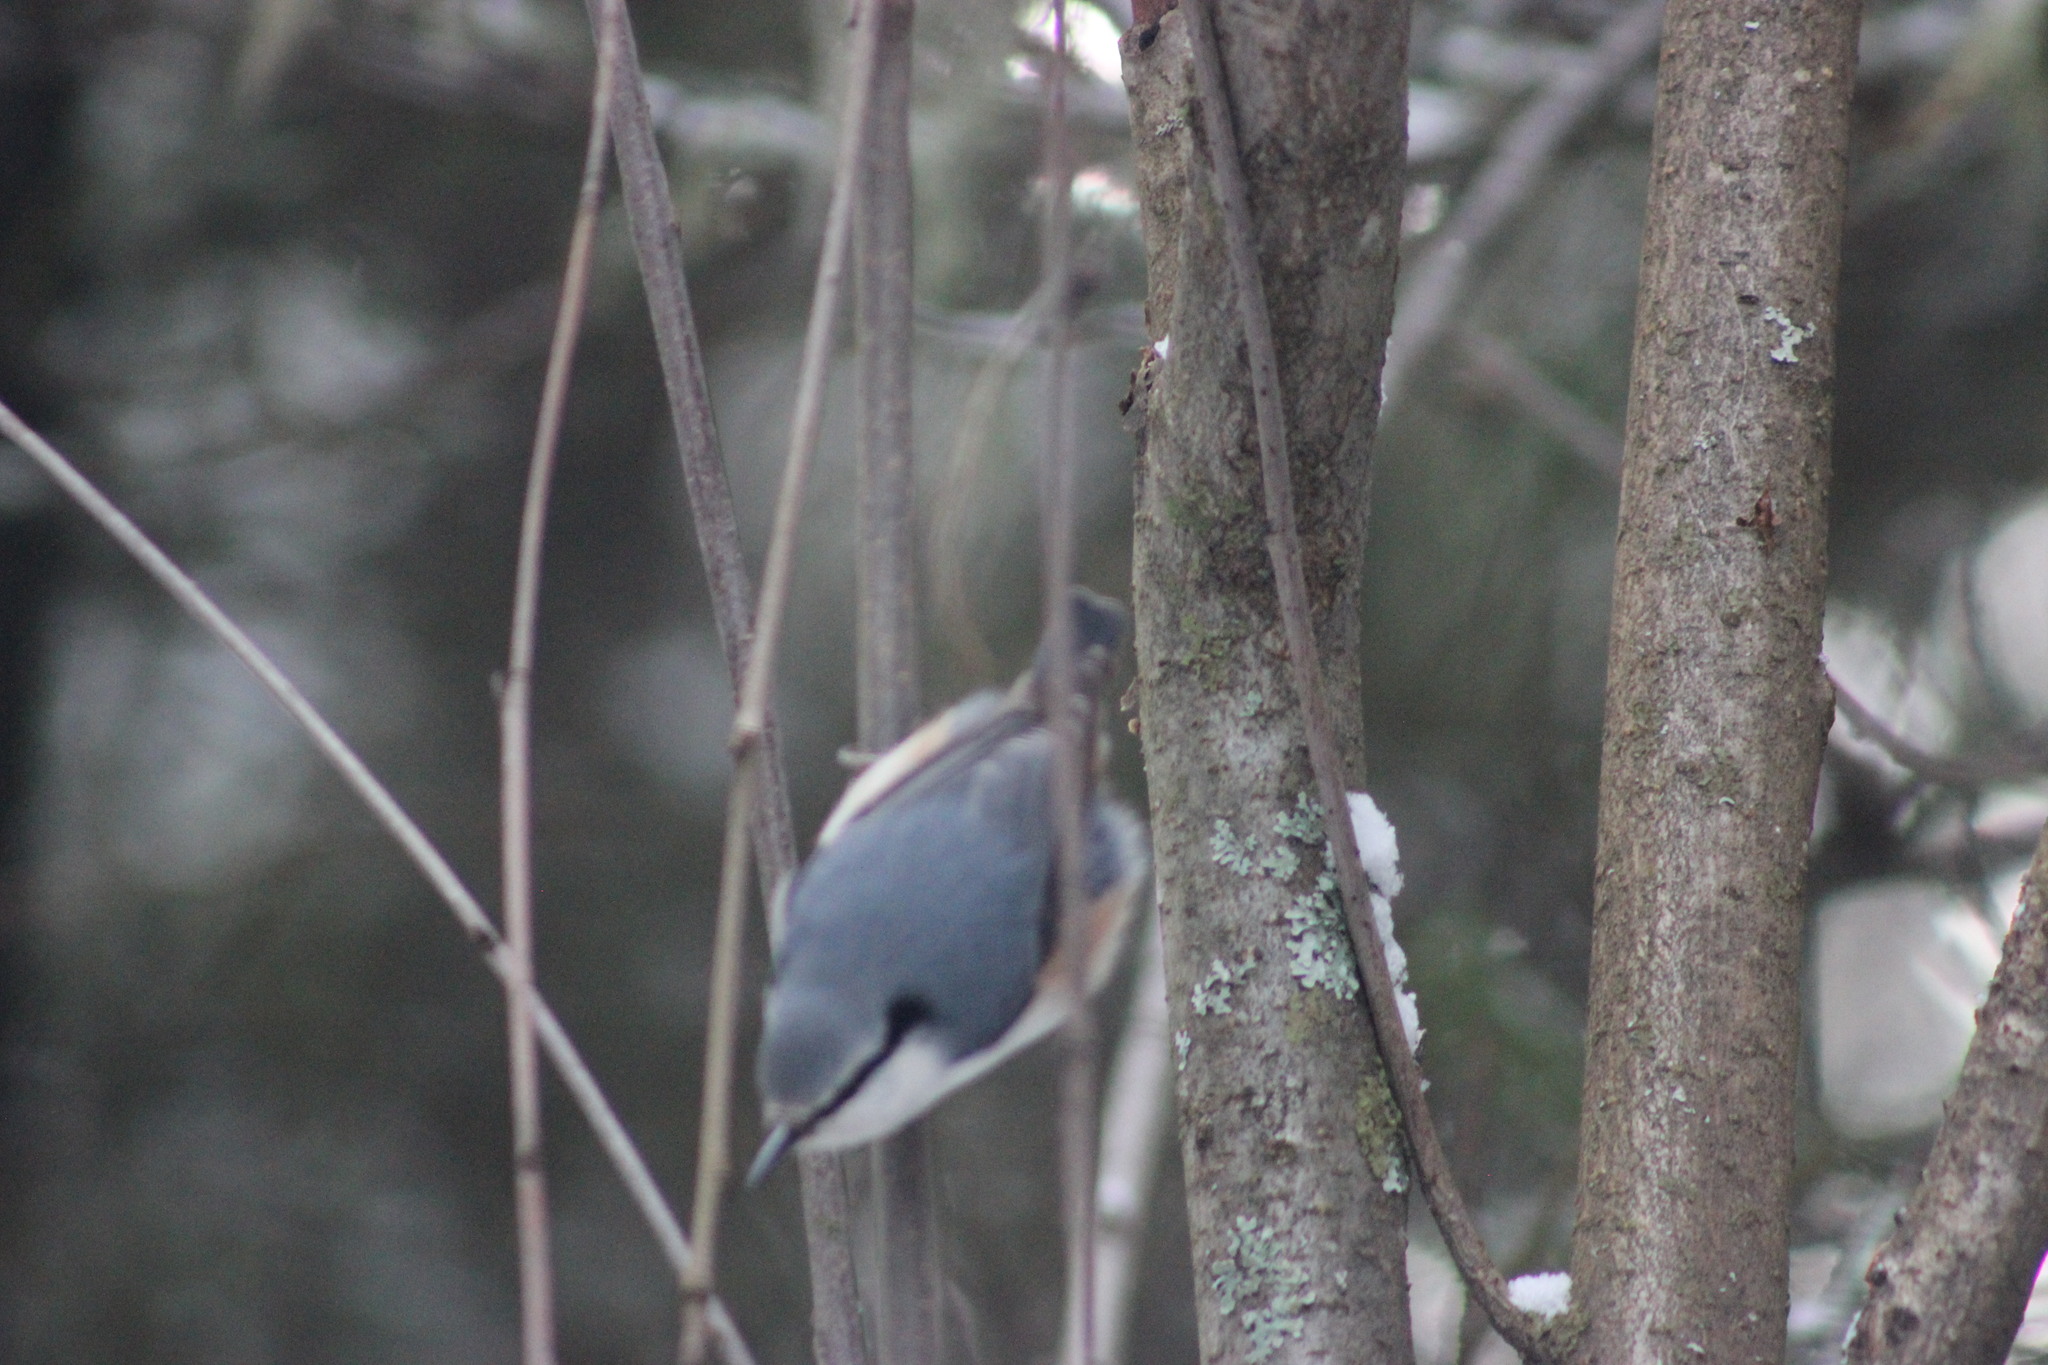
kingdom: Animalia
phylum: Chordata
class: Aves
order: Passeriformes
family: Sittidae
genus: Sitta
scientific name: Sitta europaea
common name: Eurasian nuthatch
